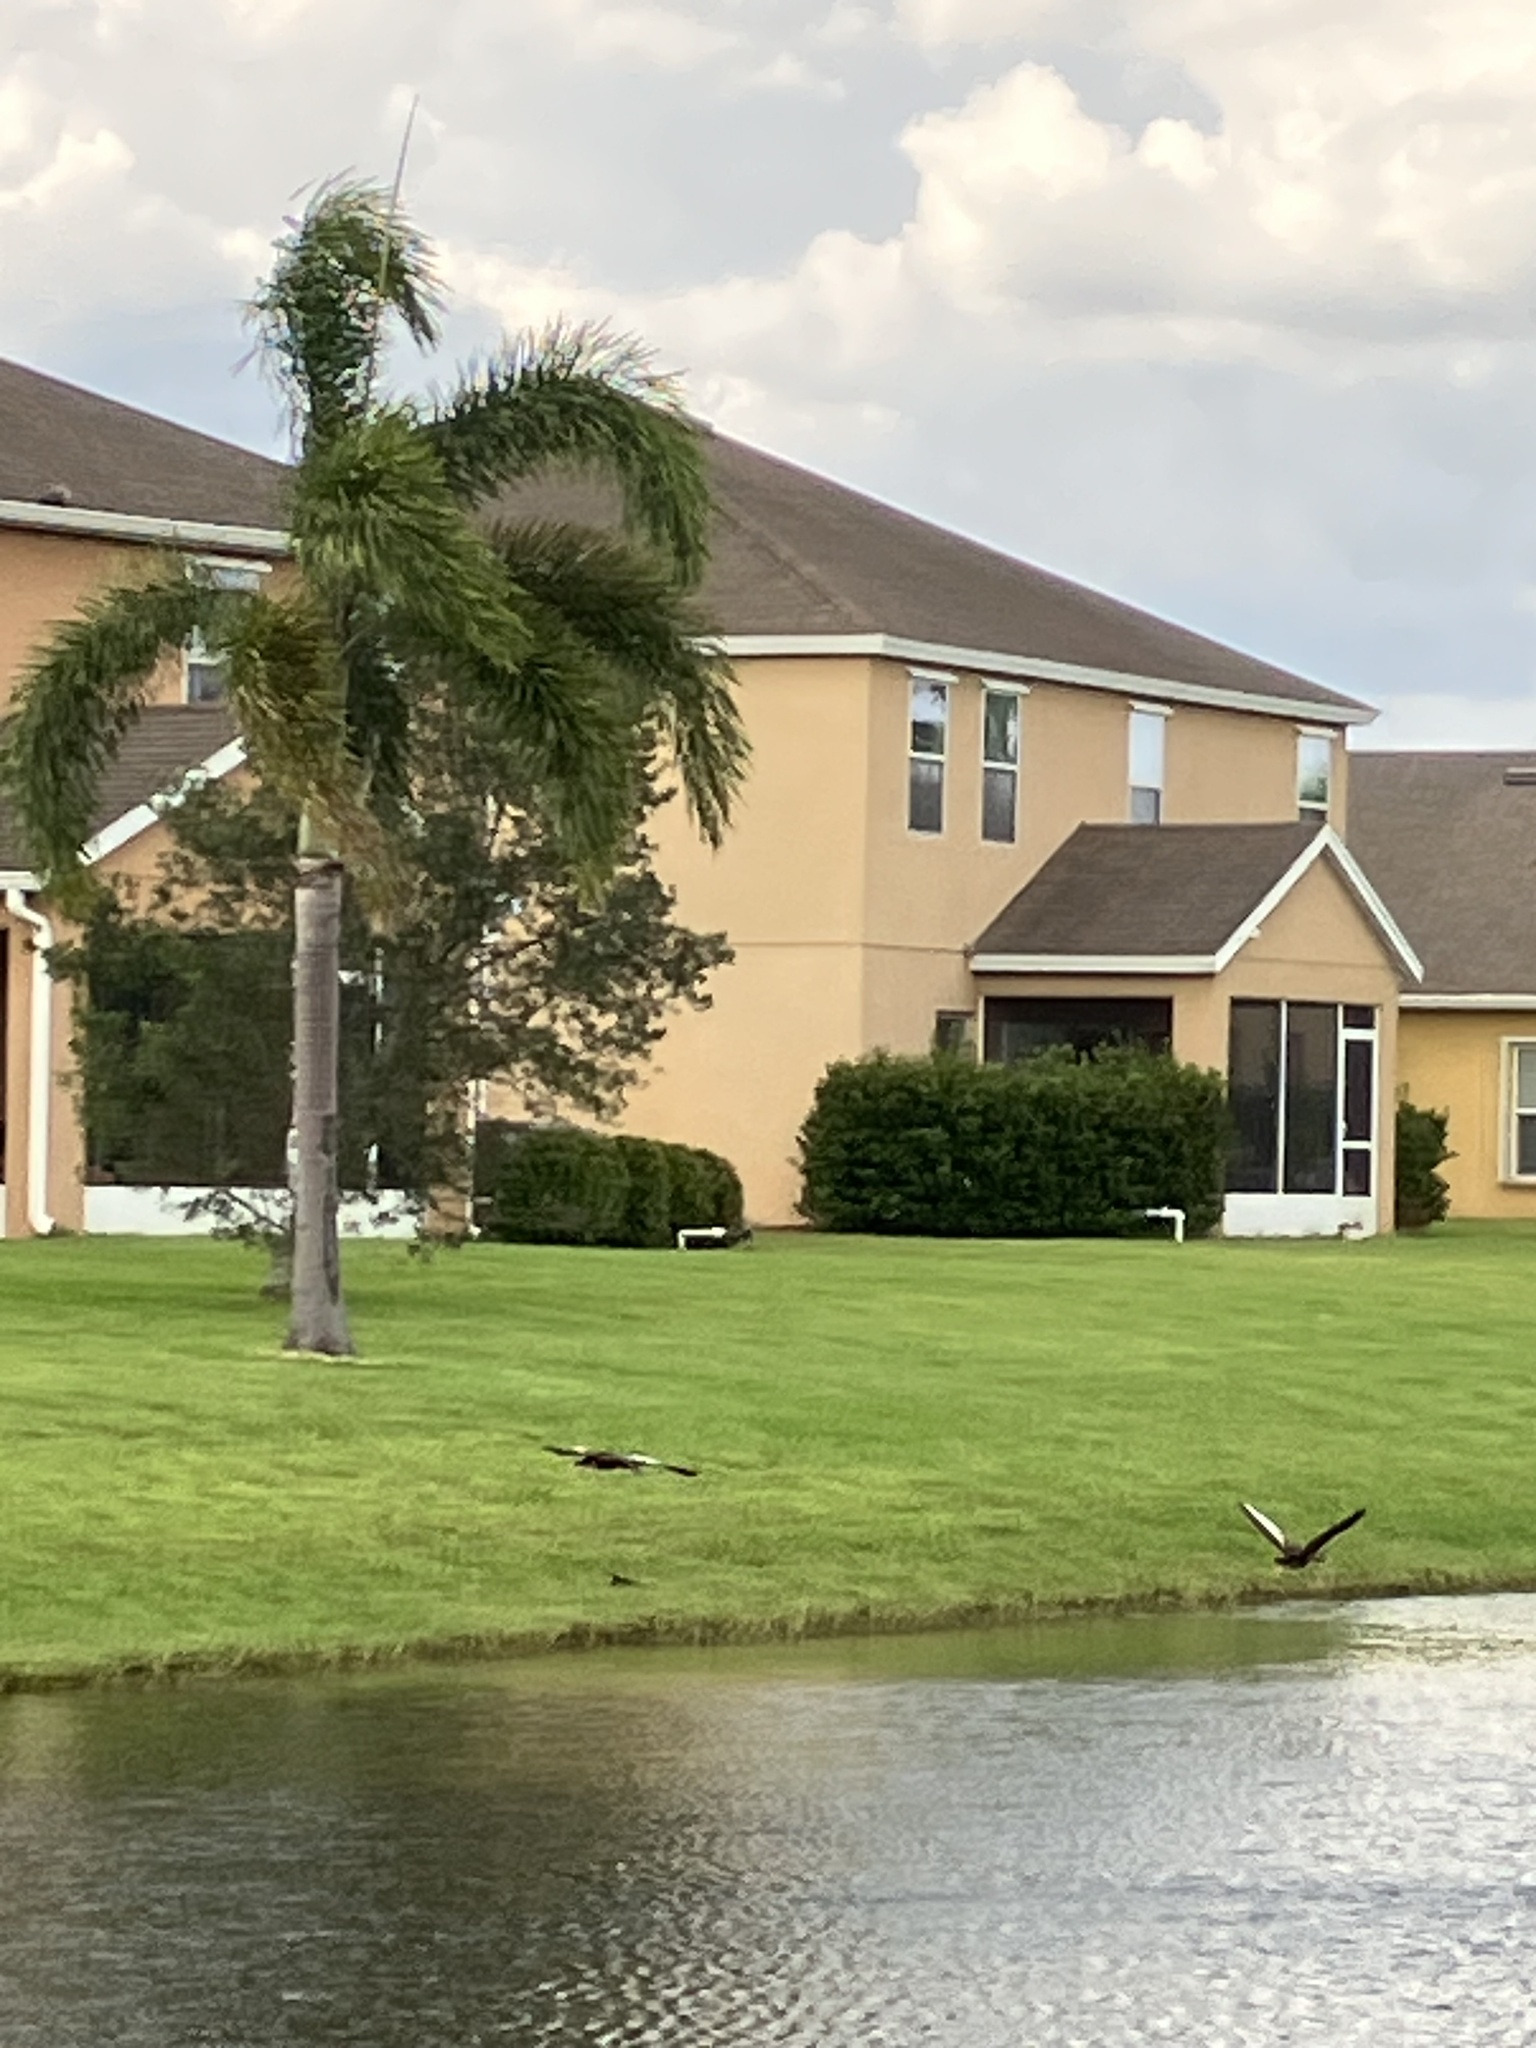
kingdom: Animalia
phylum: Chordata
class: Aves
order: Anseriformes
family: Anatidae
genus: Dendrocygna
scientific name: Dendrocygna autumnalis
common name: Black-bellied whistling duck
